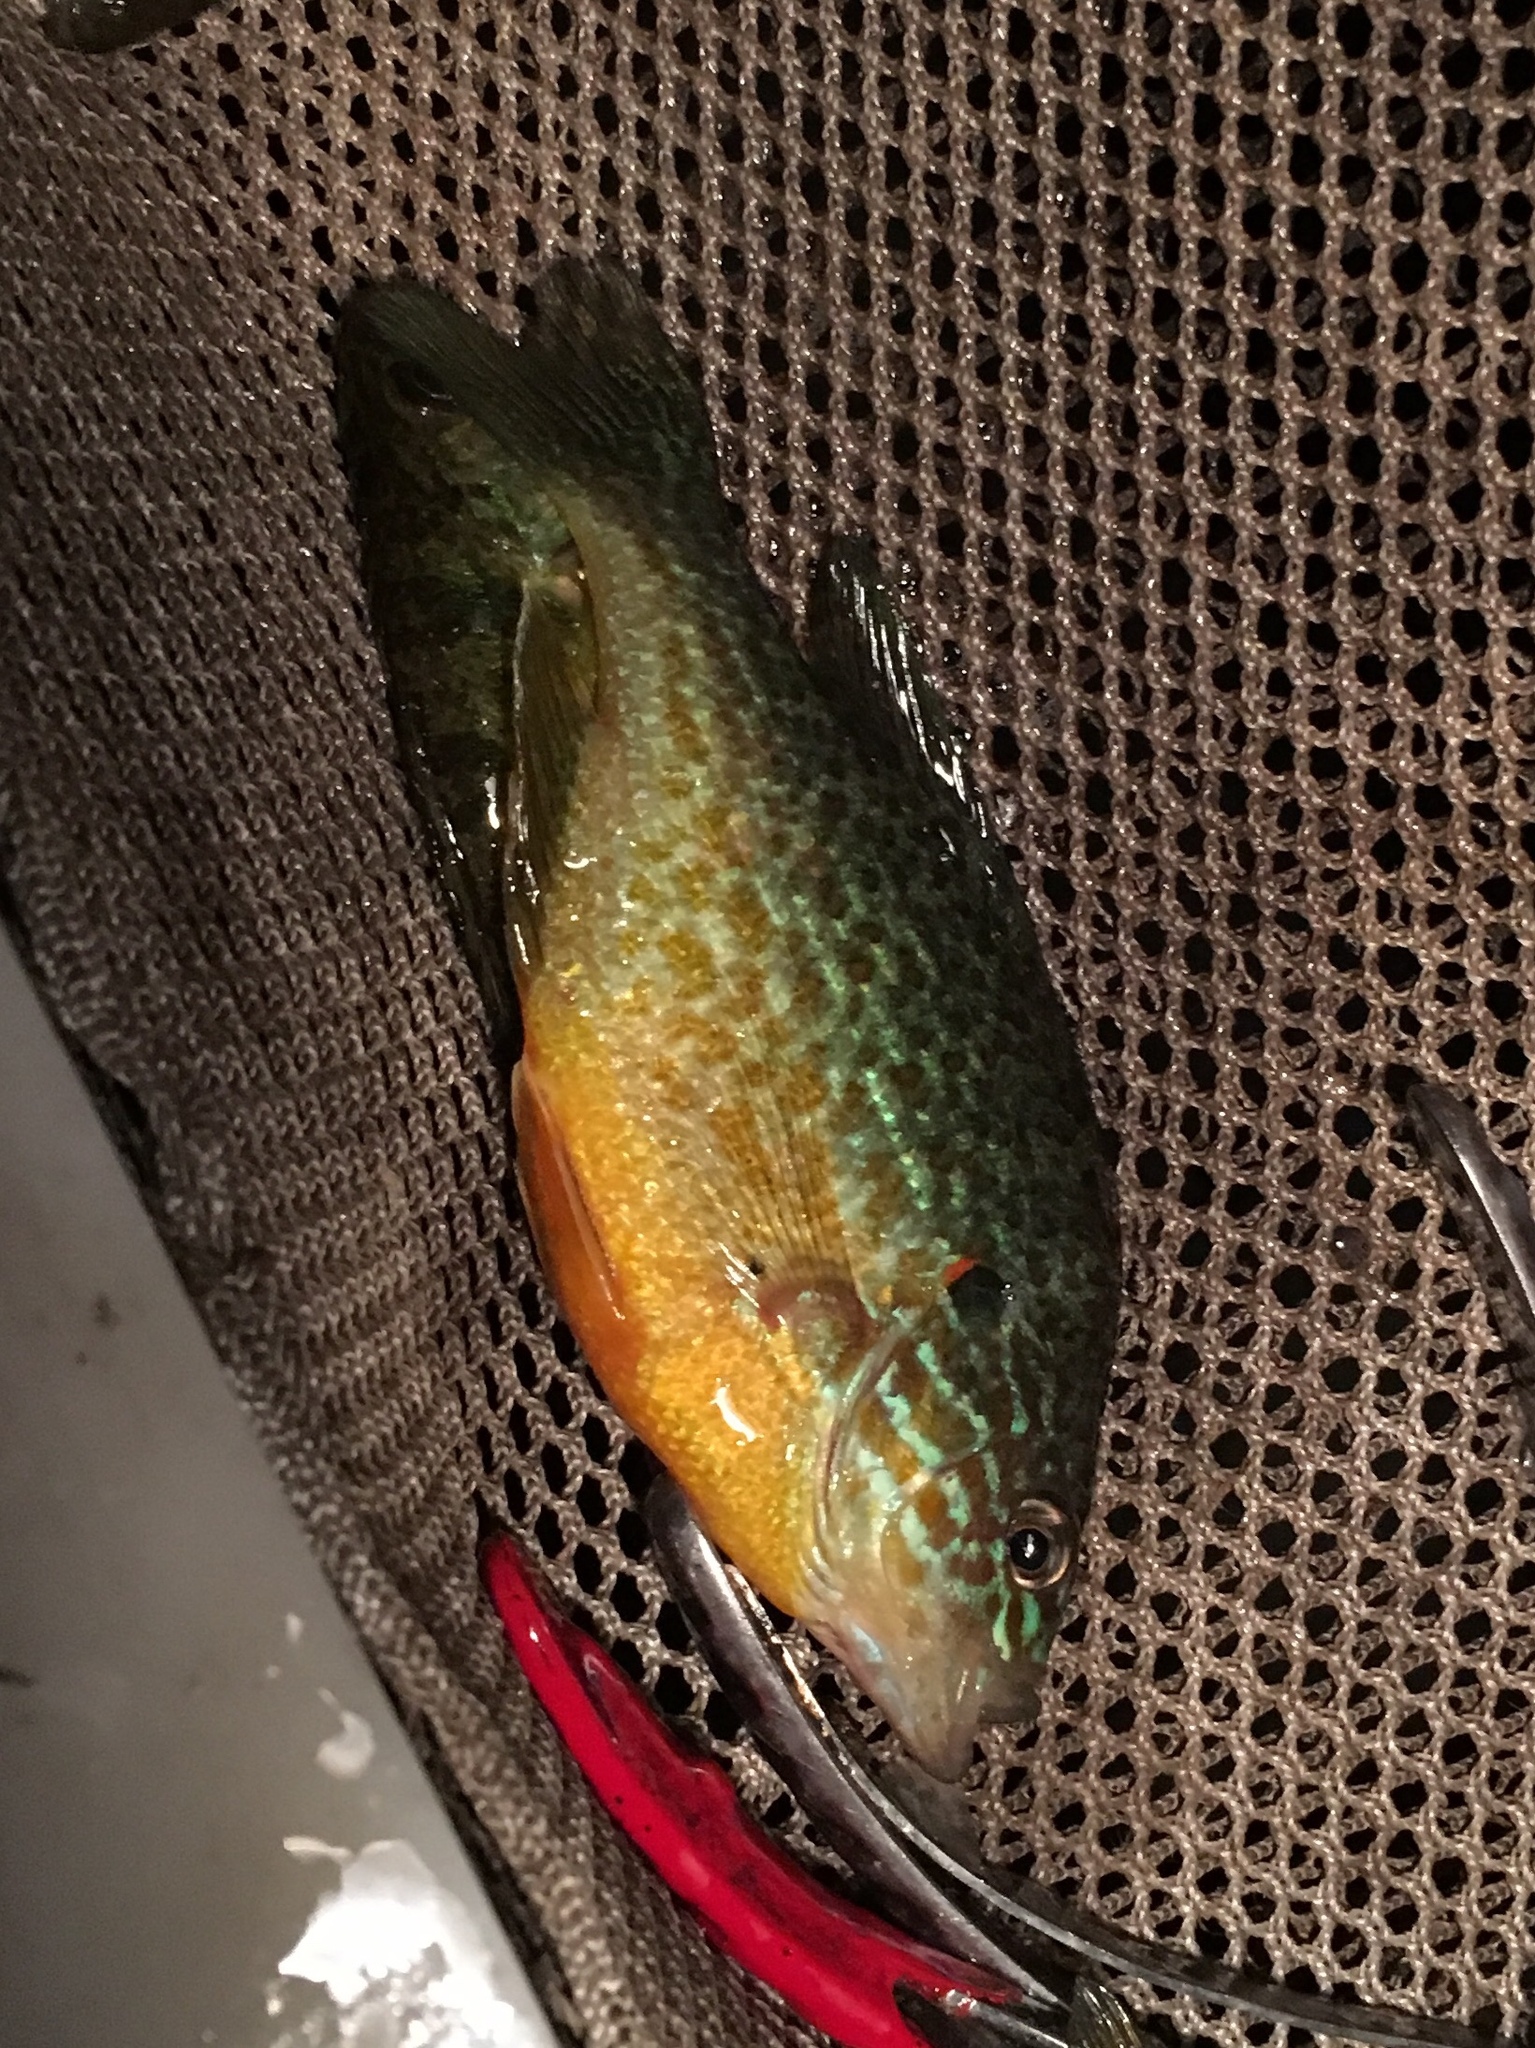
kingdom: Animalia
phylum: Chordata
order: Perciformes
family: Centrarchidae
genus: Lepomis
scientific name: Lepomis gibbosus
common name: Pumpkinseed
